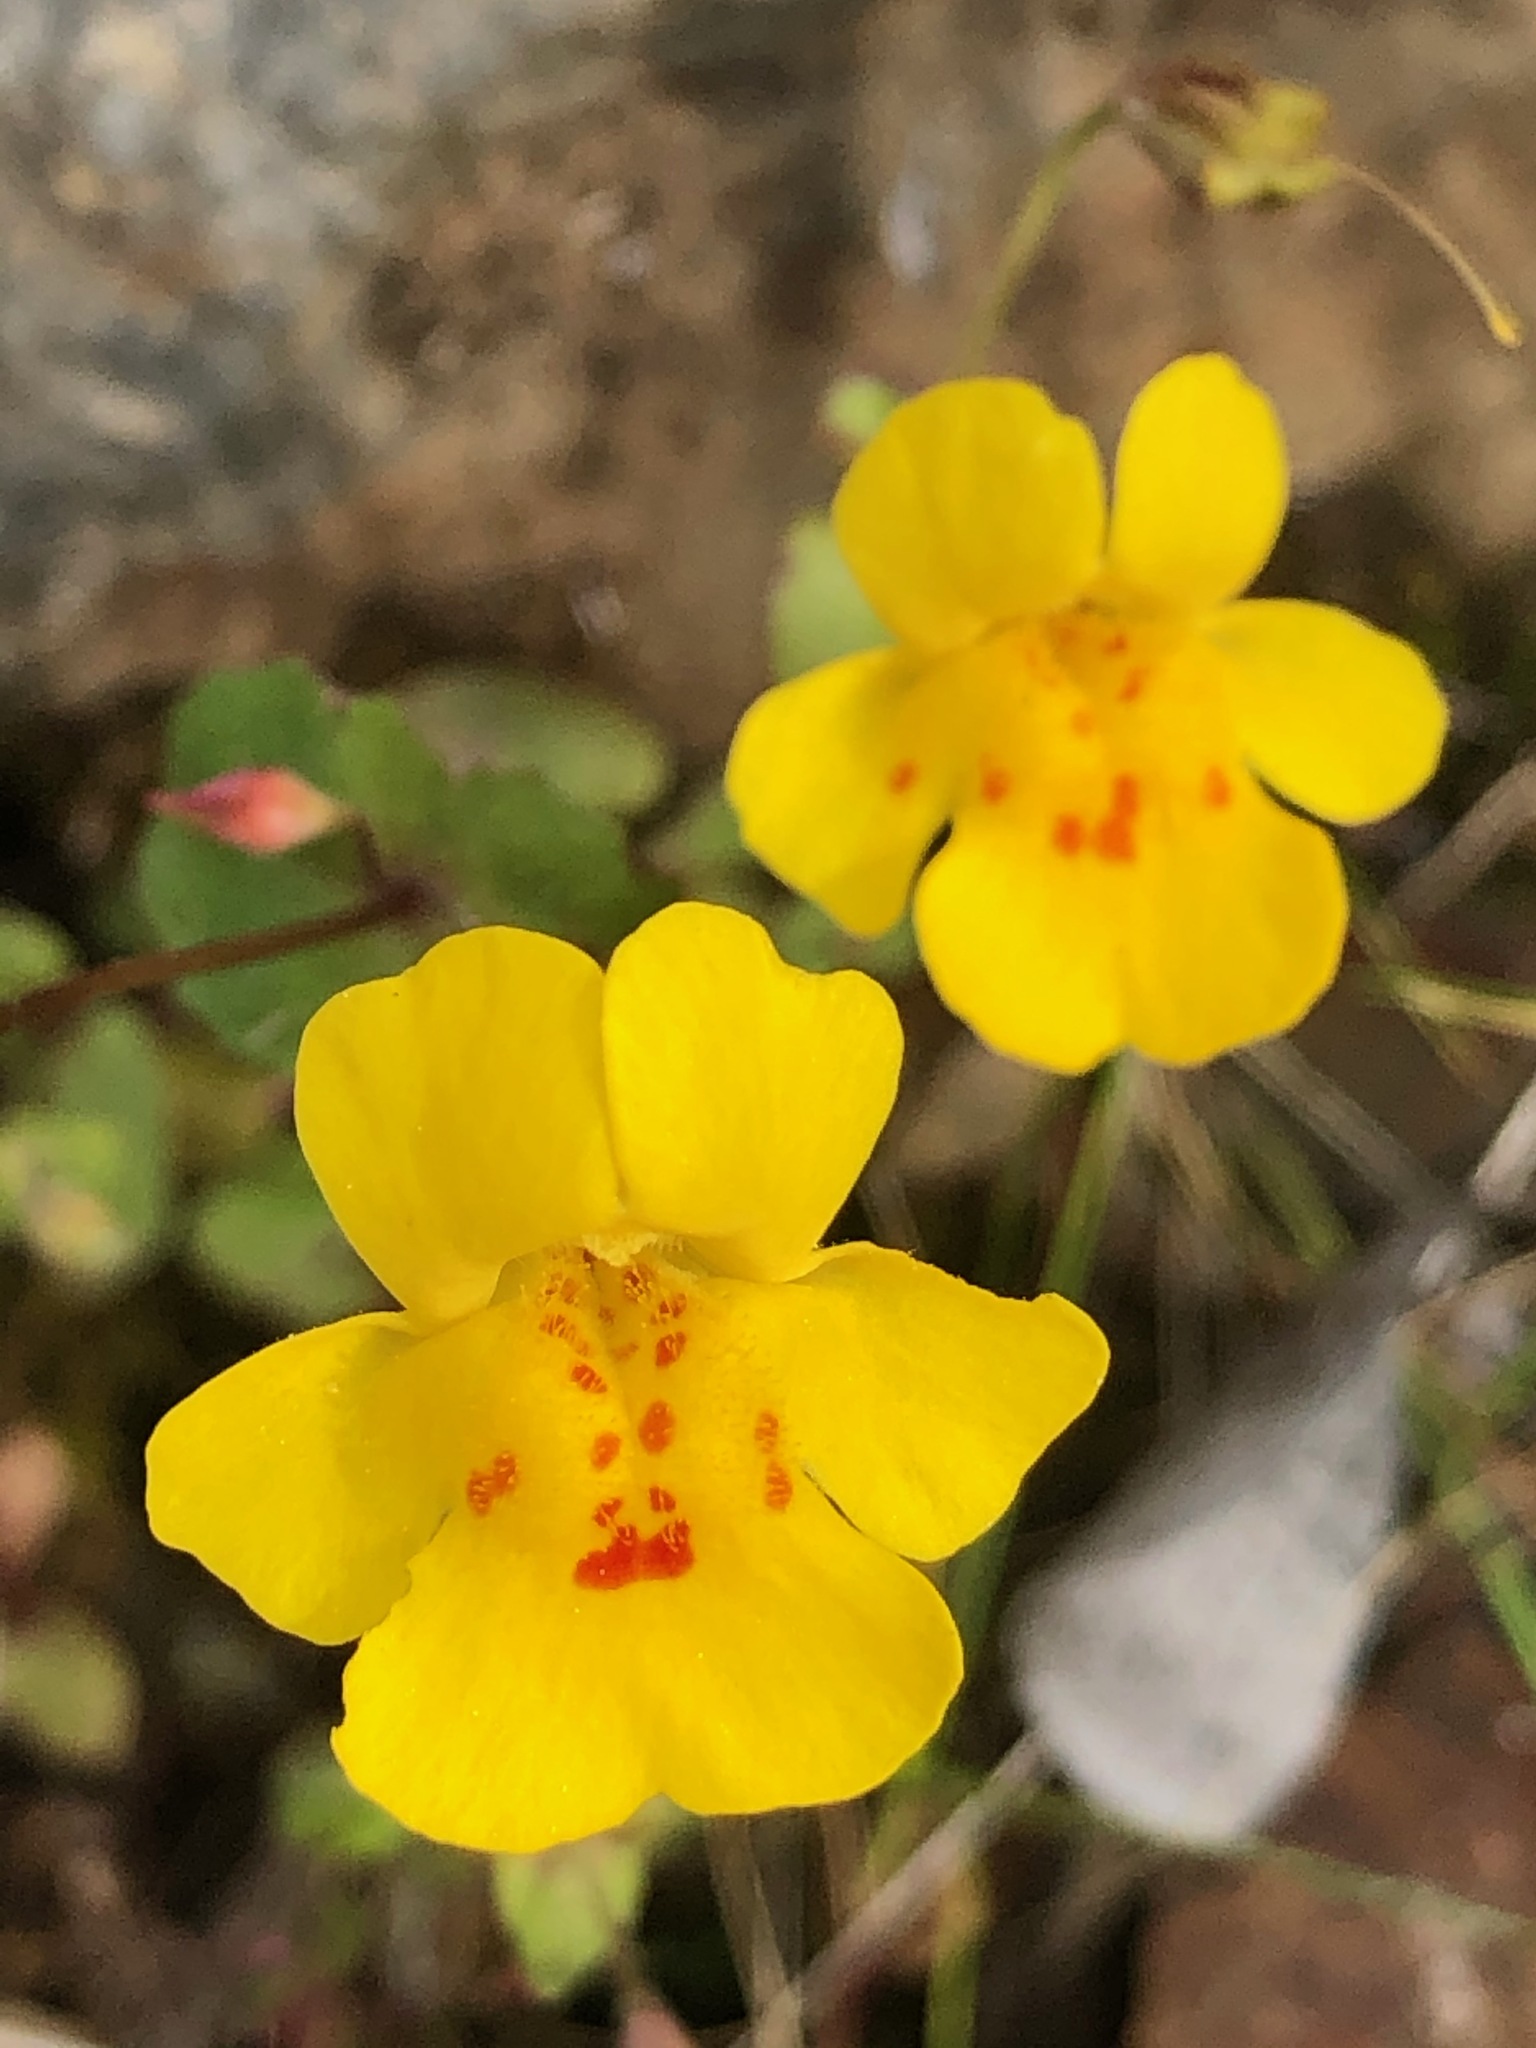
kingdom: Plantae
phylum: Tracheophyta
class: Magnoliopsida
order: Lamiales
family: Phrymaceae
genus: Erythranthe
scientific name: Erythranthe guttata
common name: Monkeyflower
